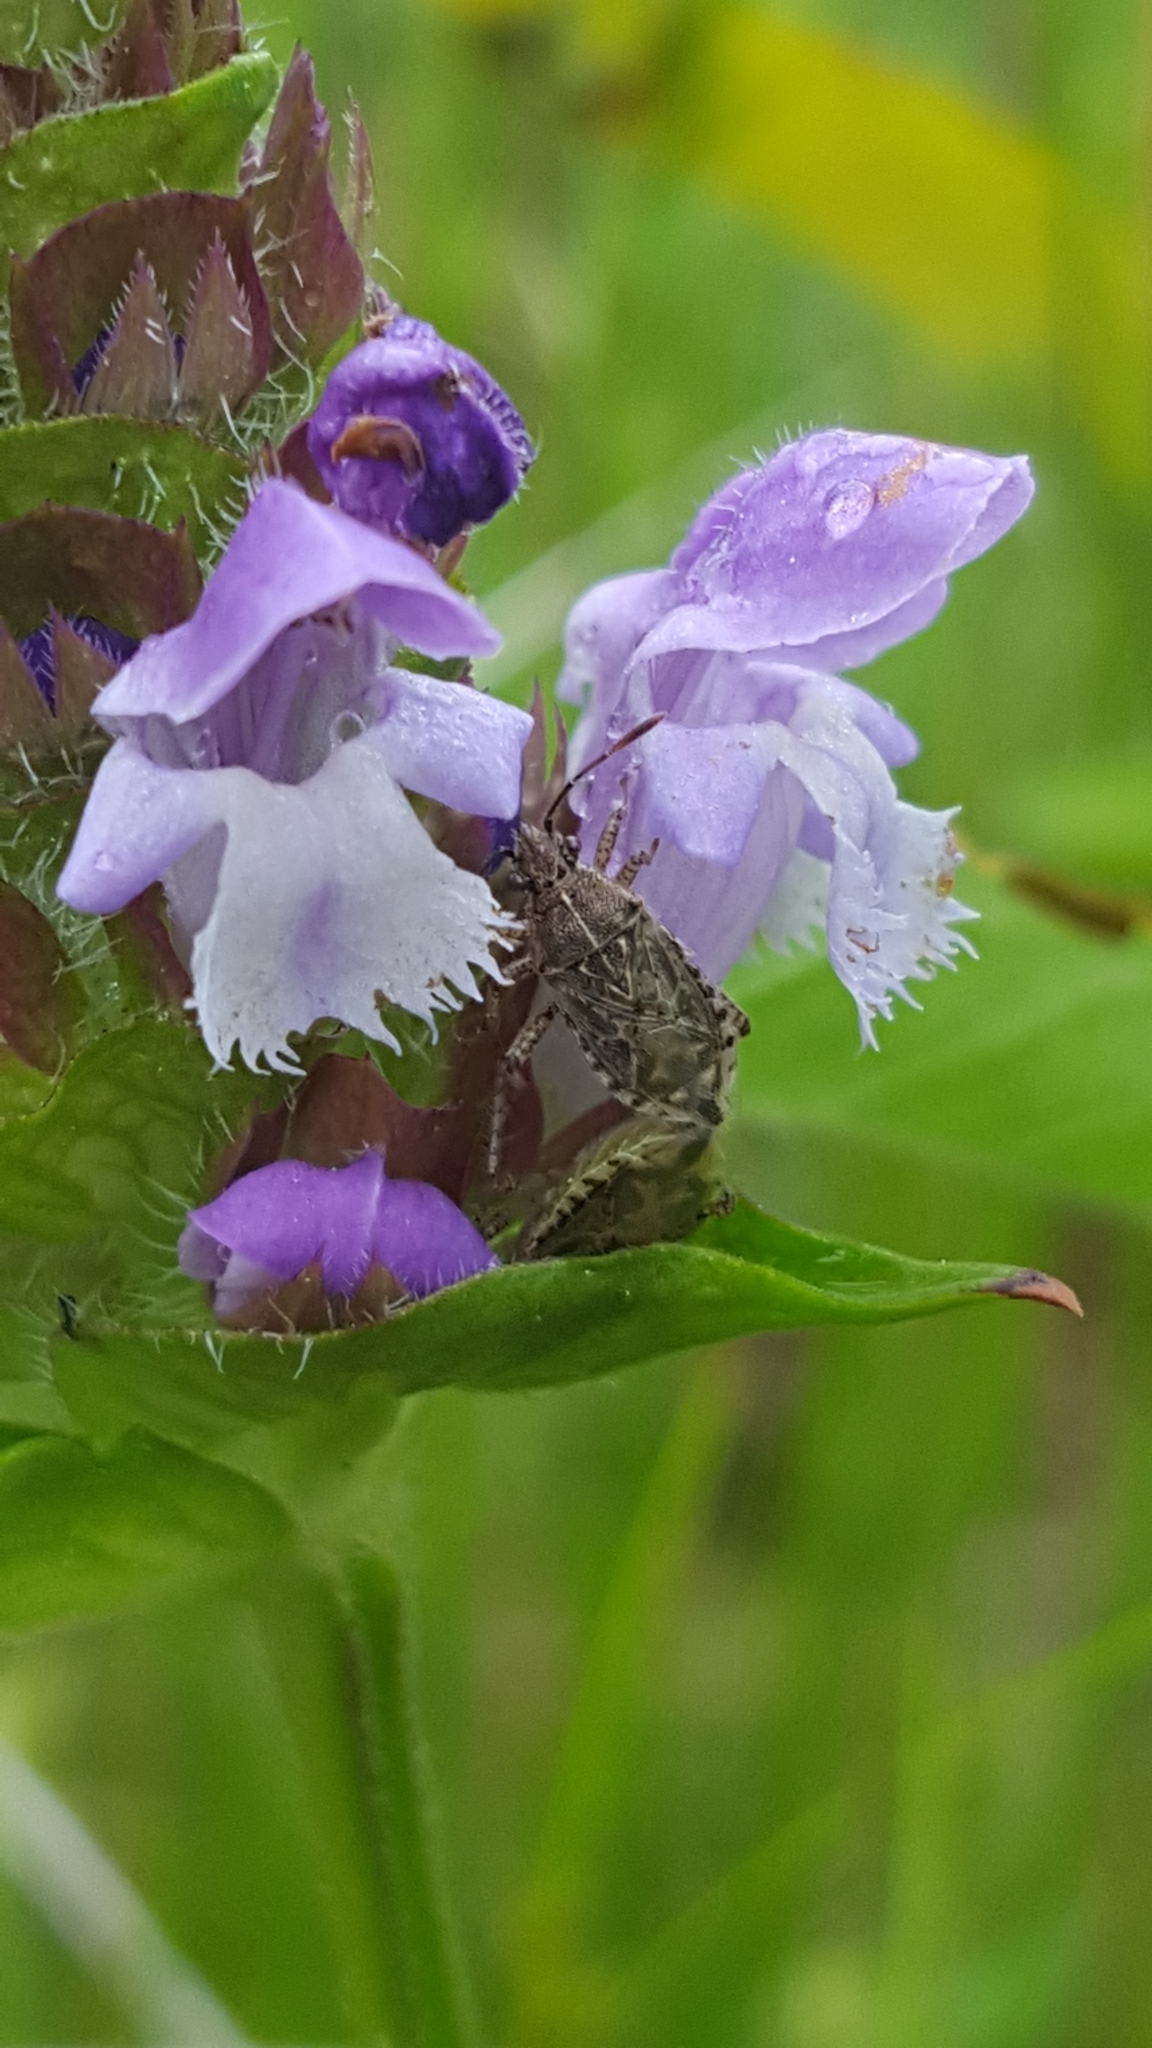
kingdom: Plantae
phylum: Tracheophyta
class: Magnoliopsida
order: Lamiales
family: Lamiaceae
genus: Prunella
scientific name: Prunella vulgaris
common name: Heal-all
